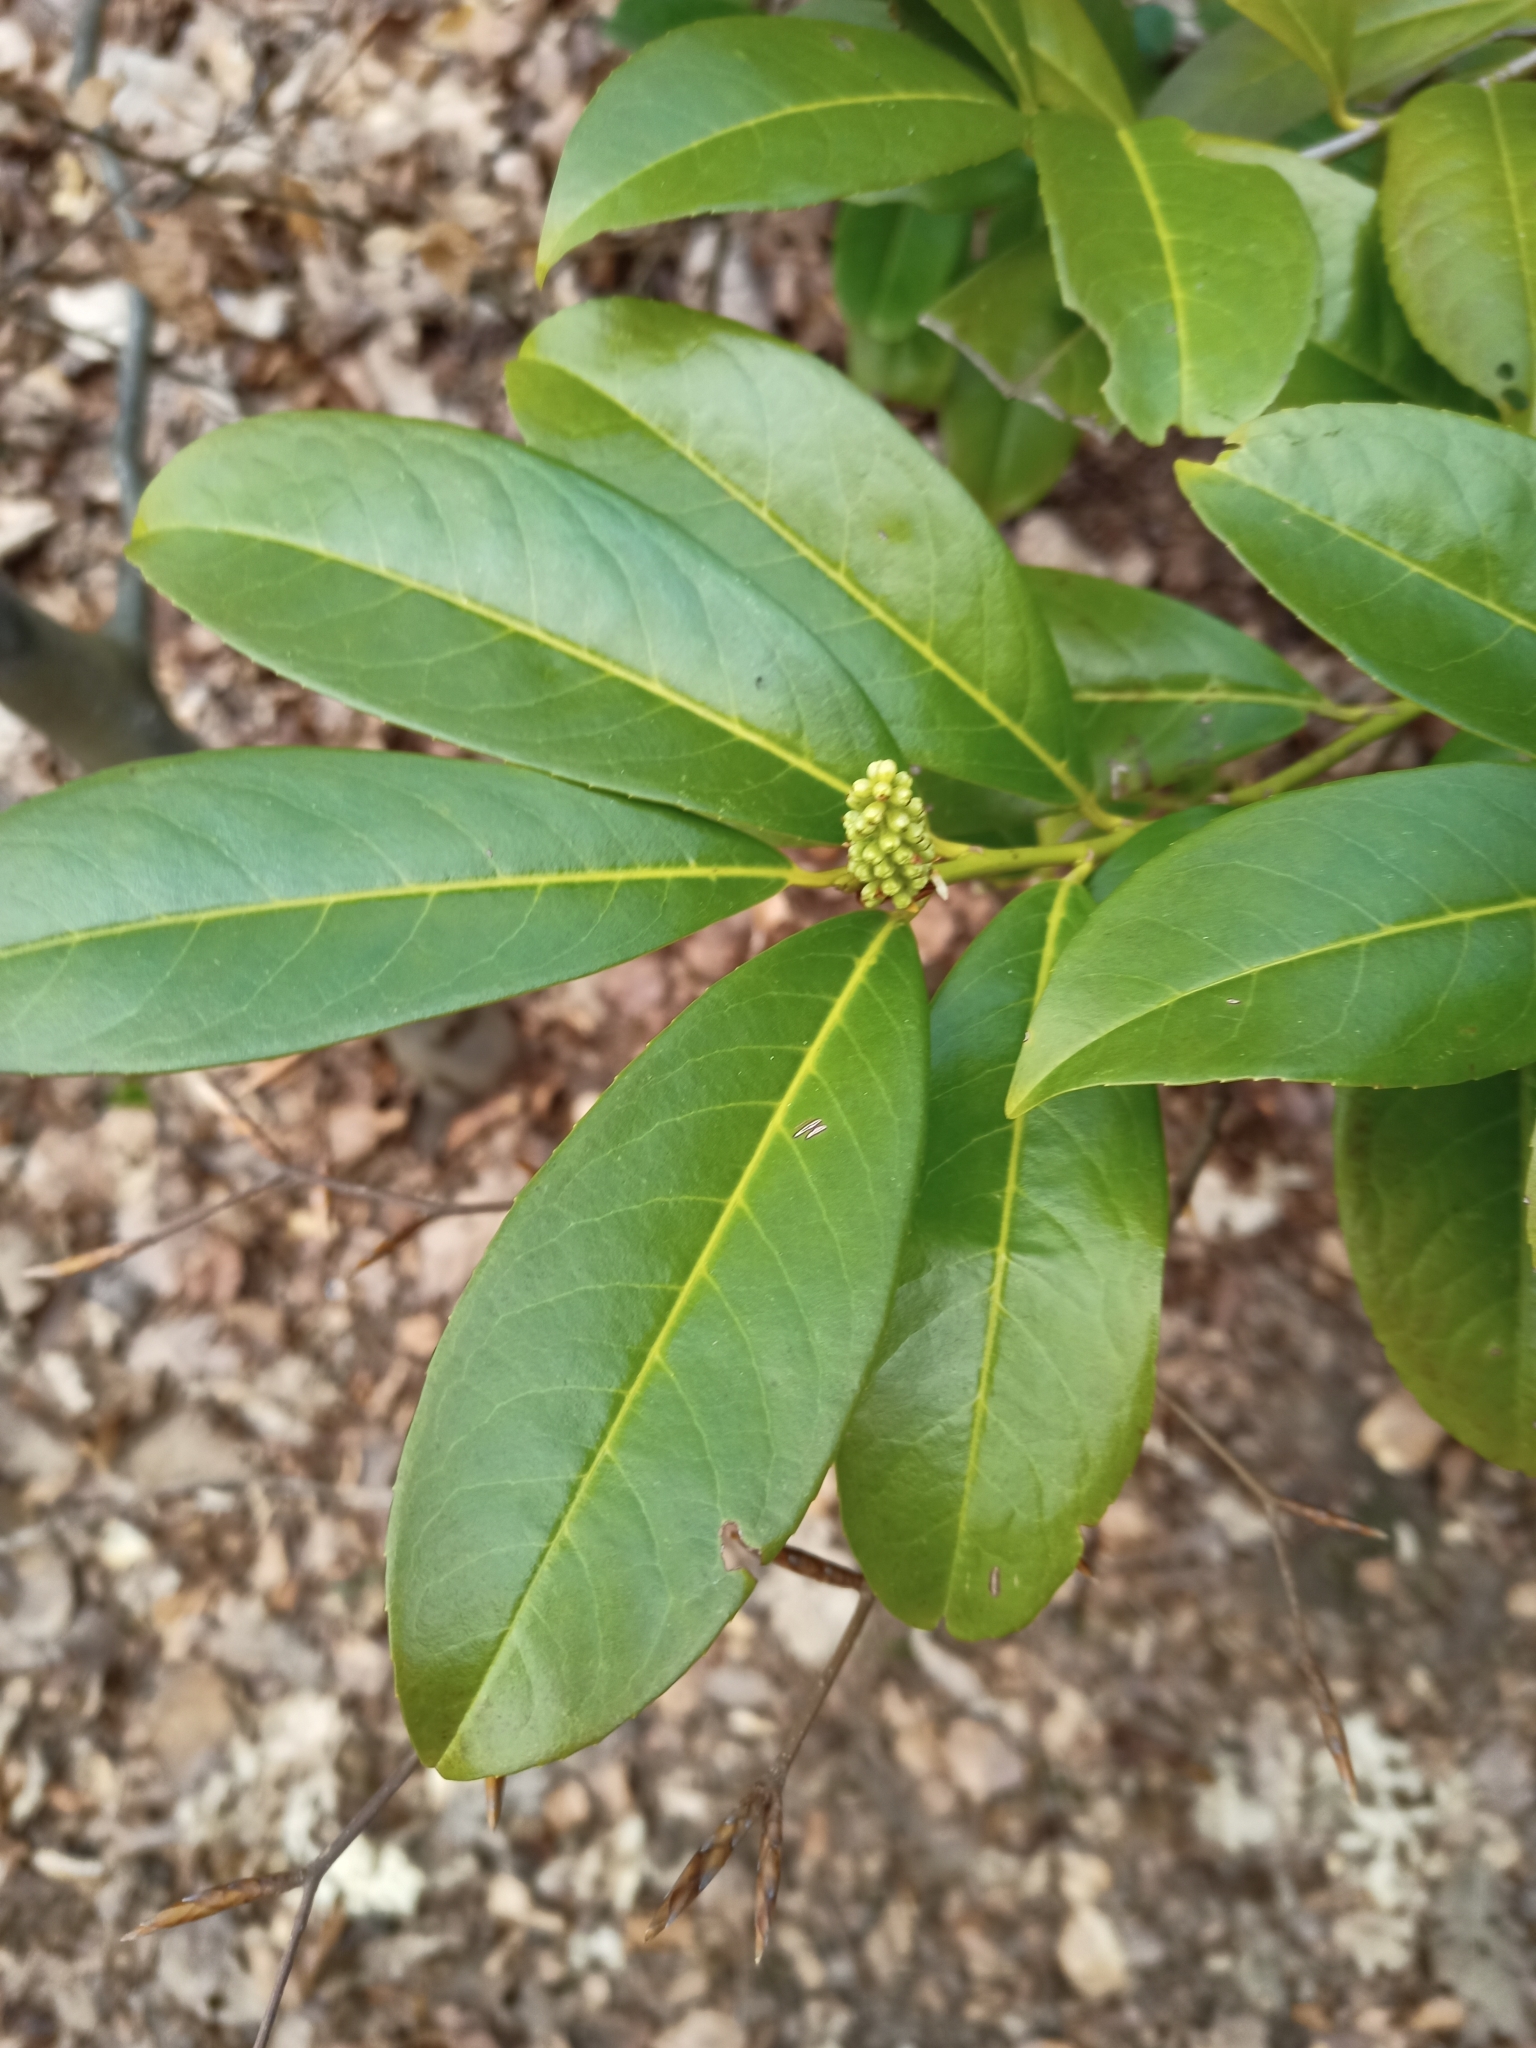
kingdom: Plantae
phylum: Tracheophyta
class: Magnoliopsida
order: Rosales
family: Rosaceae
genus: Prunus
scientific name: Prunus laurocerasus
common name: Cherry laurel
